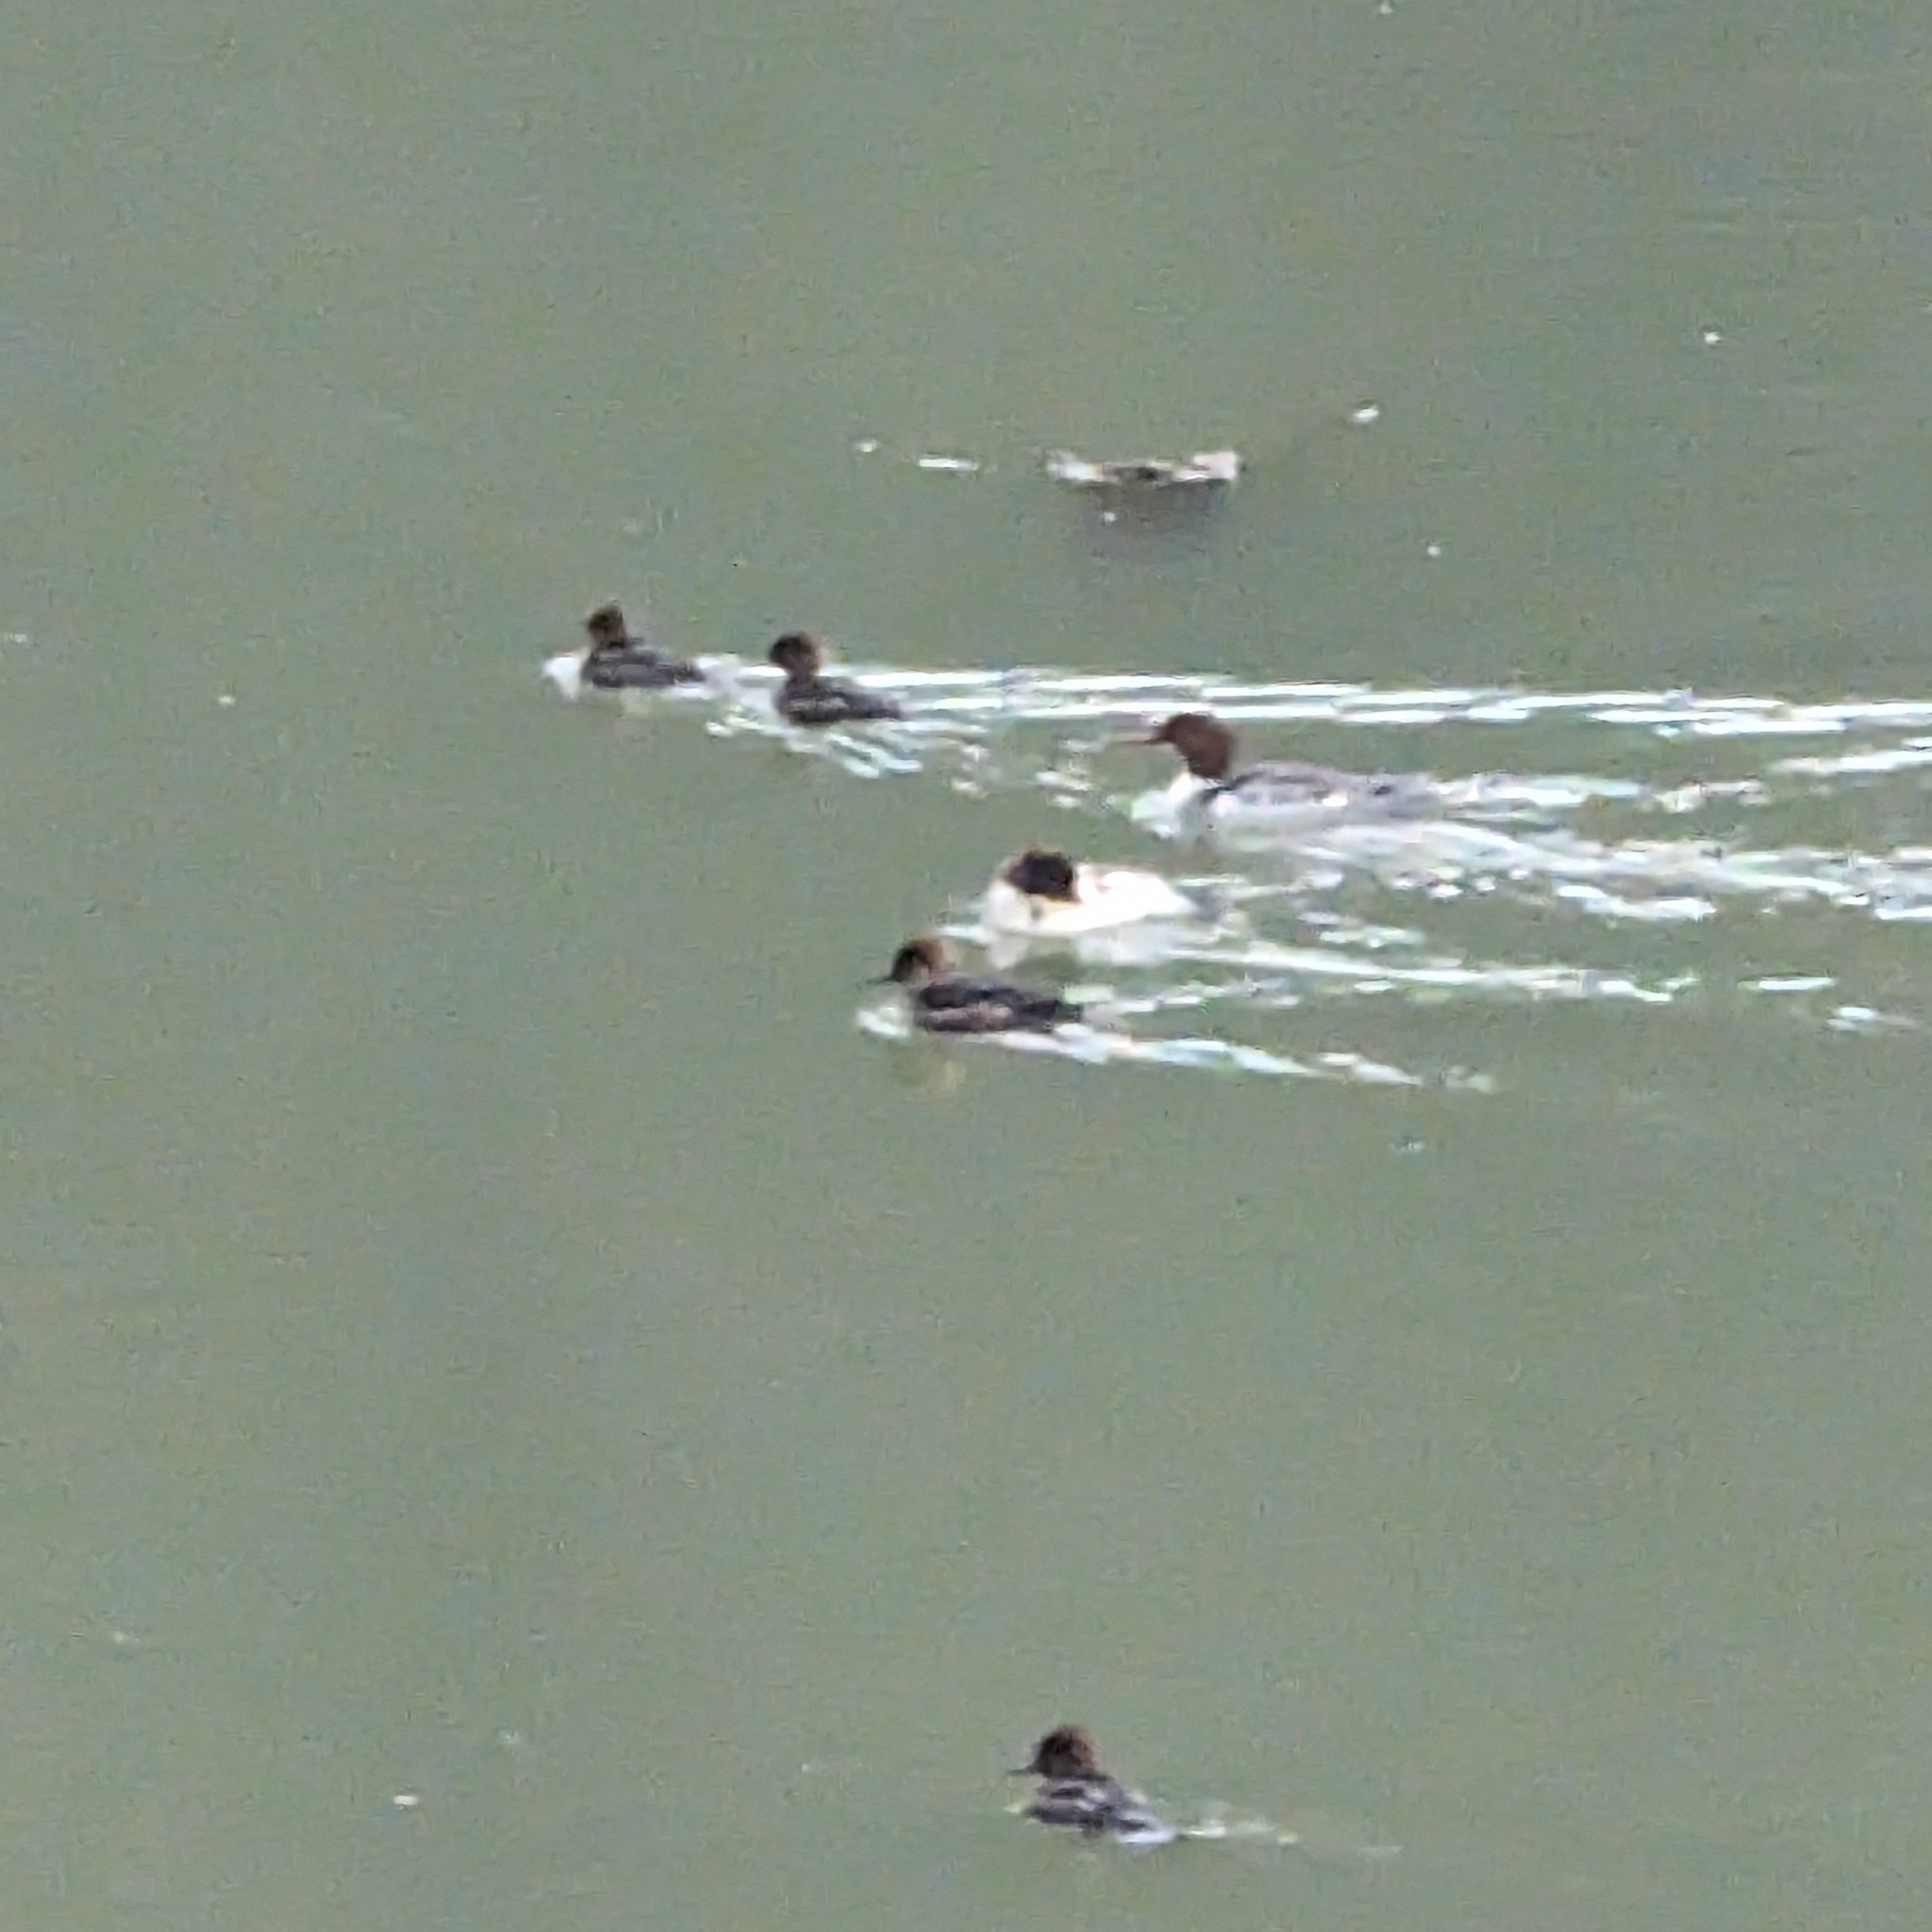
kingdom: Animalia
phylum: Chordata
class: Aves
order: Anseriformes
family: Anatidae
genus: Mergus
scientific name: Mergus merganser
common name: Common merganser
